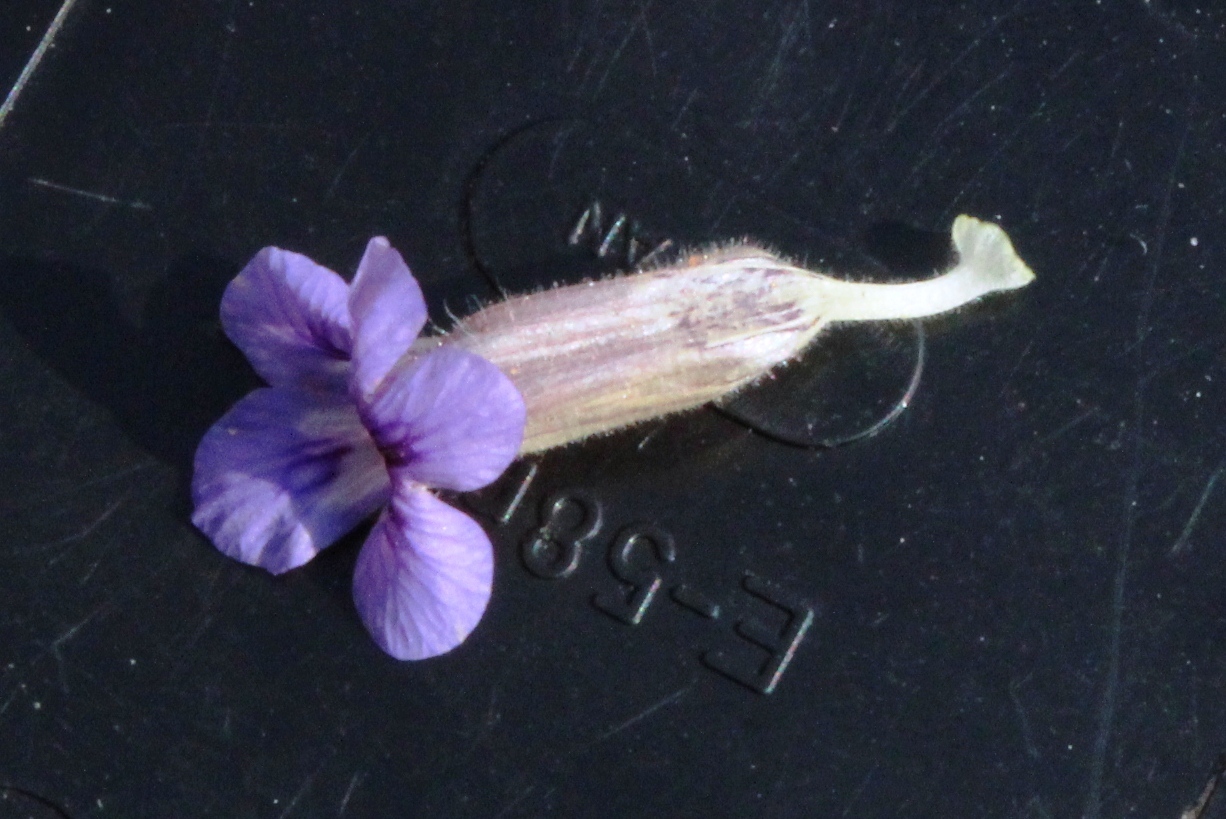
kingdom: Plantae
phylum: Tracheophyta
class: Magnoliopsida
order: Lamiales
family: Scrophulariaceae
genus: Aptosimum
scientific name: Aptosimum elongatum
